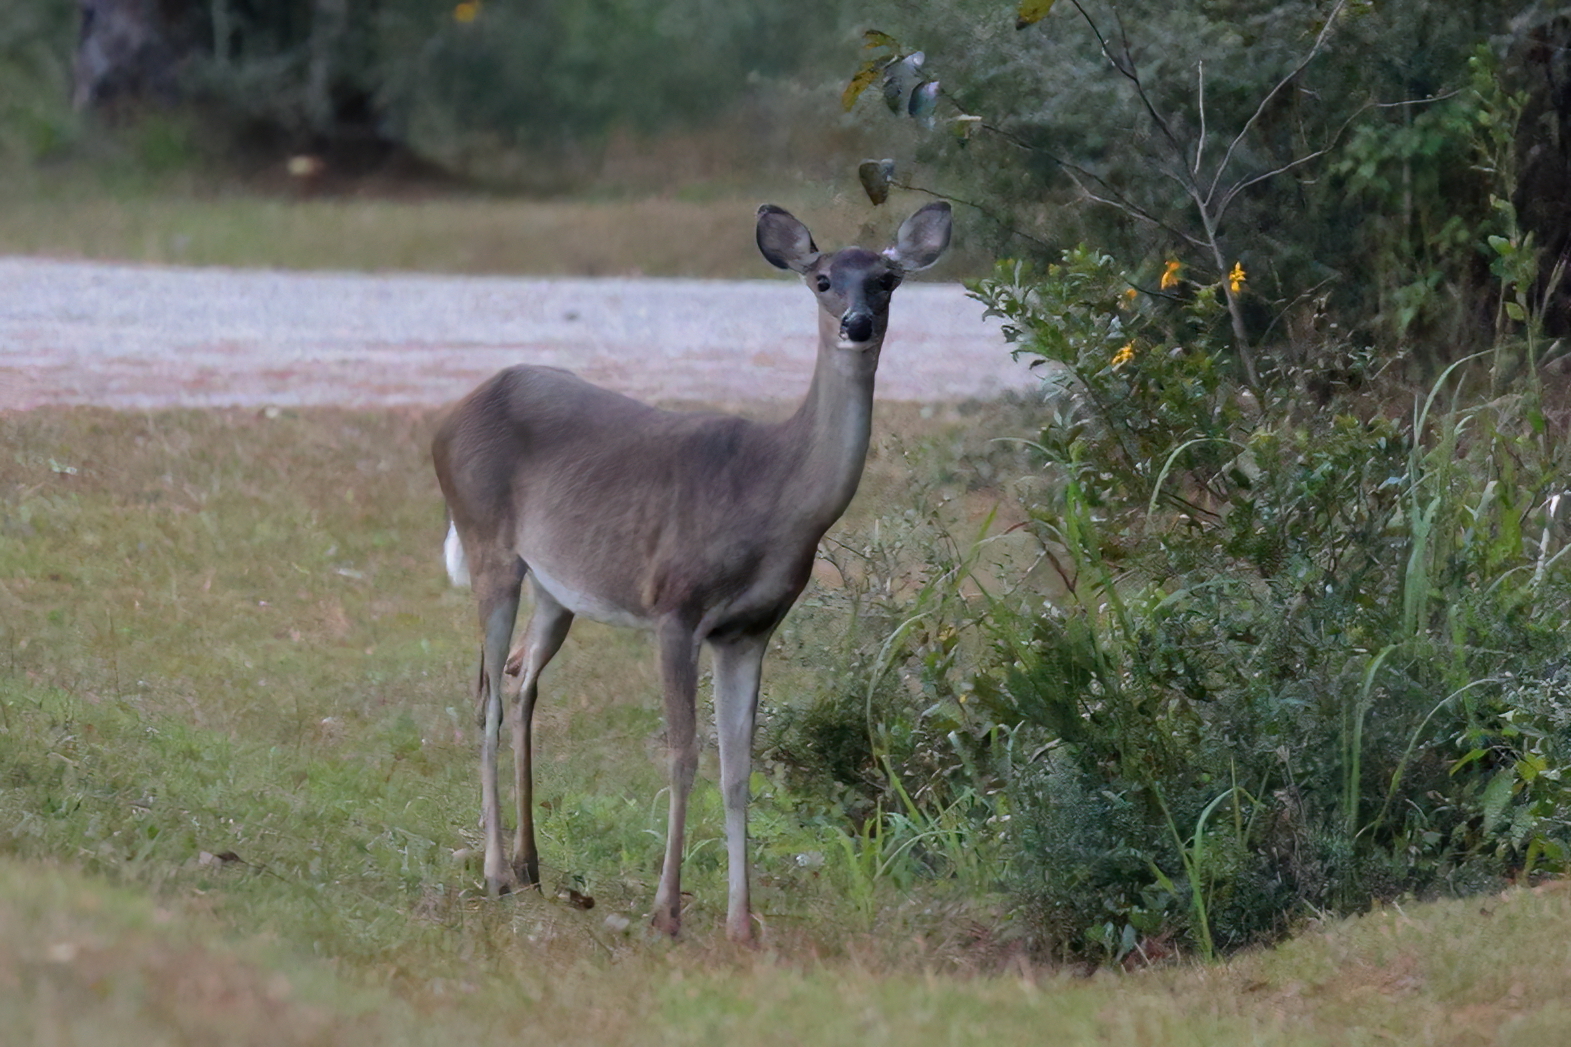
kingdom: Animalia
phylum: Chordata
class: Mammalia
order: Artiodactyla
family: Cervidae
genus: Odocoileus
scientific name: Odocoileus virginianus
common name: White-tailed deer
